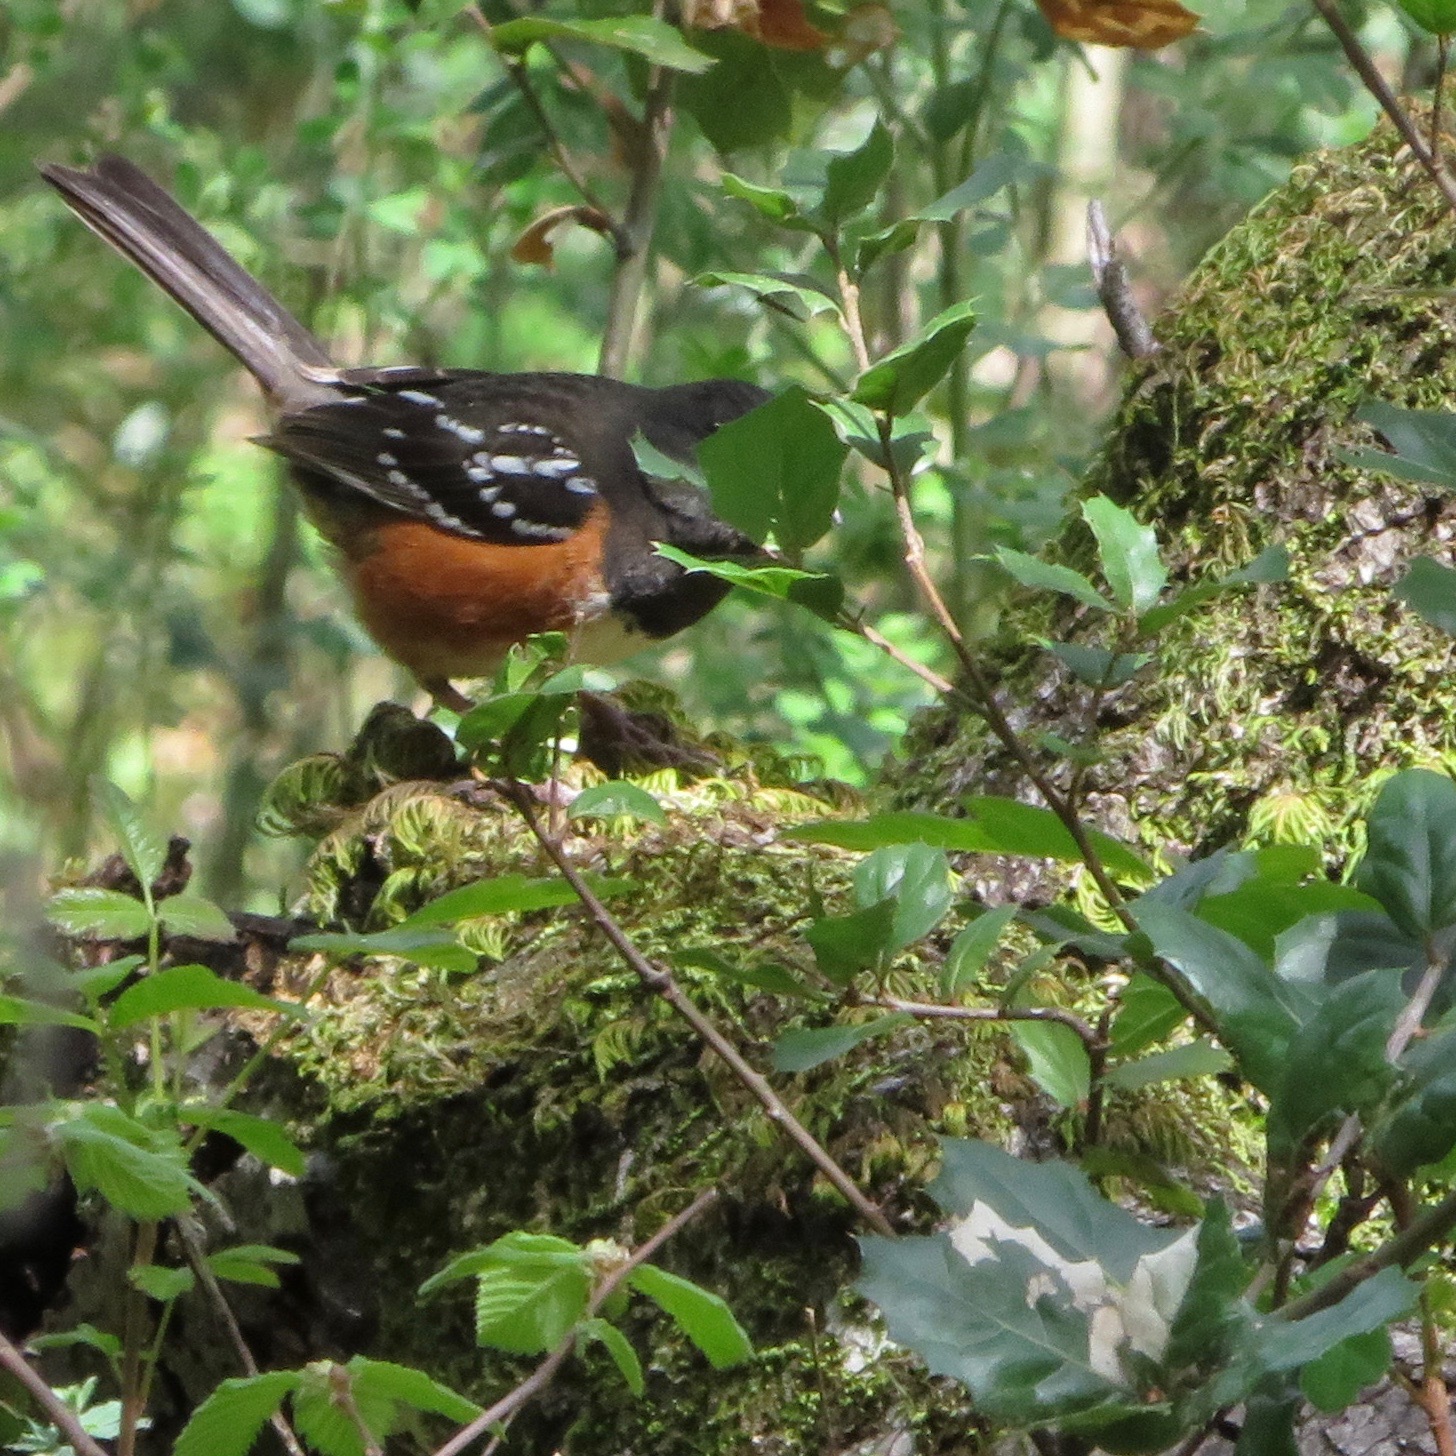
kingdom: Animalia
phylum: Chordata
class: Aves
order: Passeriformes
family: Passerellidae
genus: Pipilo
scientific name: Pipilo maculatus
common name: Spotted towhee
